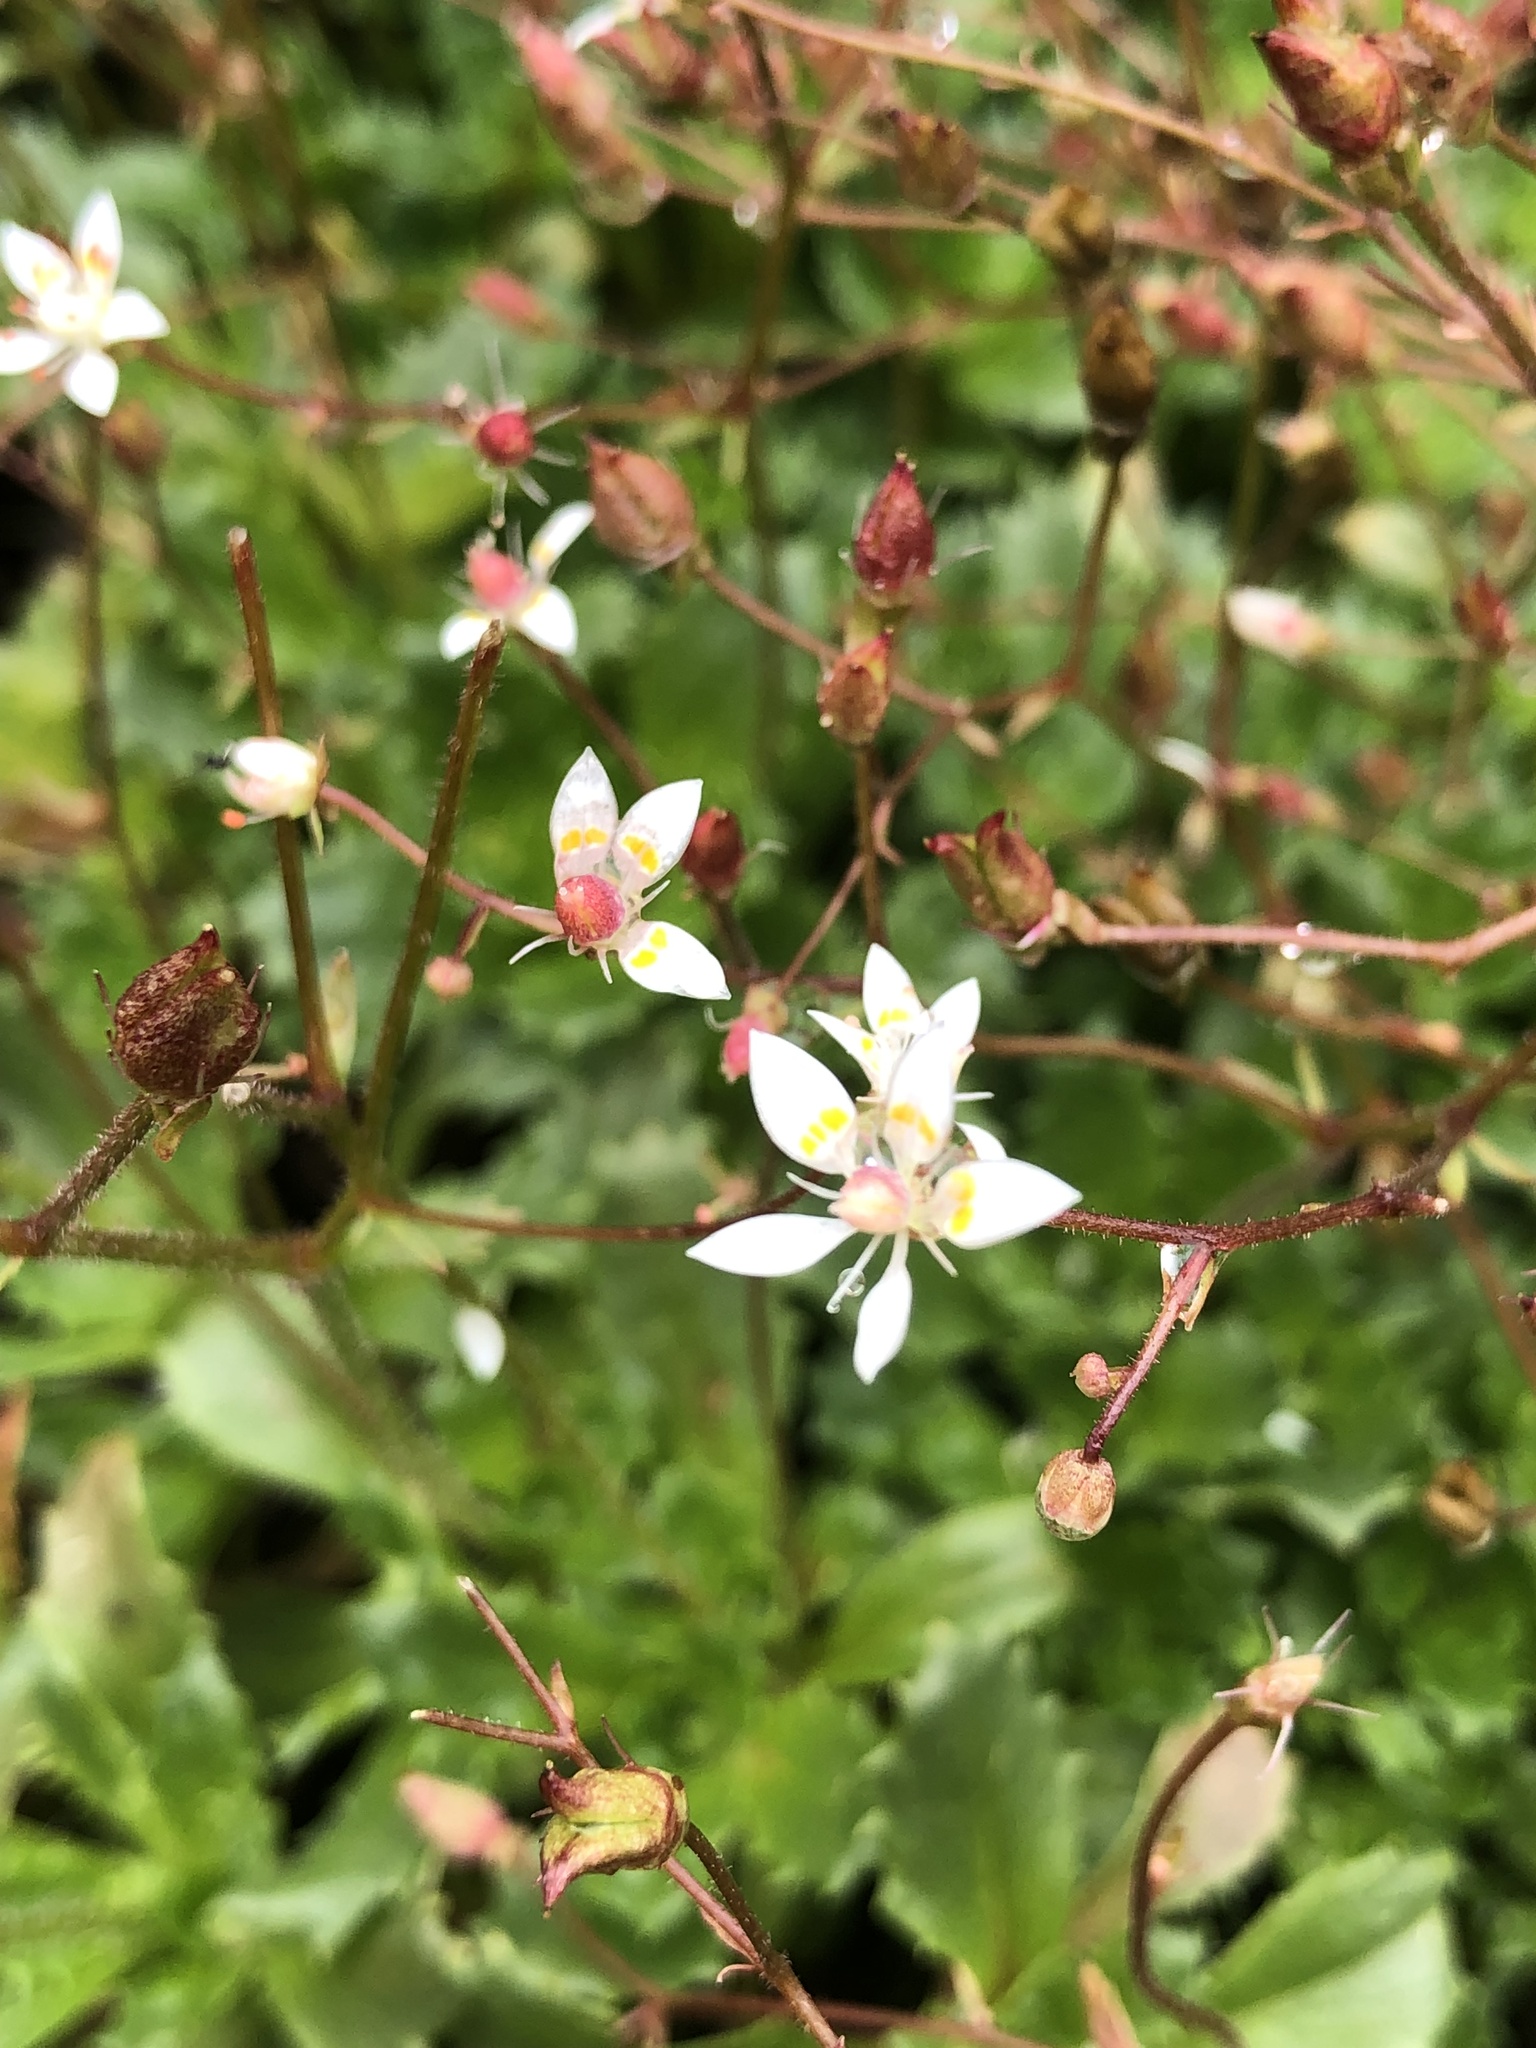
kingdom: Plantae
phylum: Tracheophyta
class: Magnoliopsida
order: Saxifragales
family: Saxifragaceae
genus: Micranthes
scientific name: Micranthes stellaris
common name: Starry saxifrage
